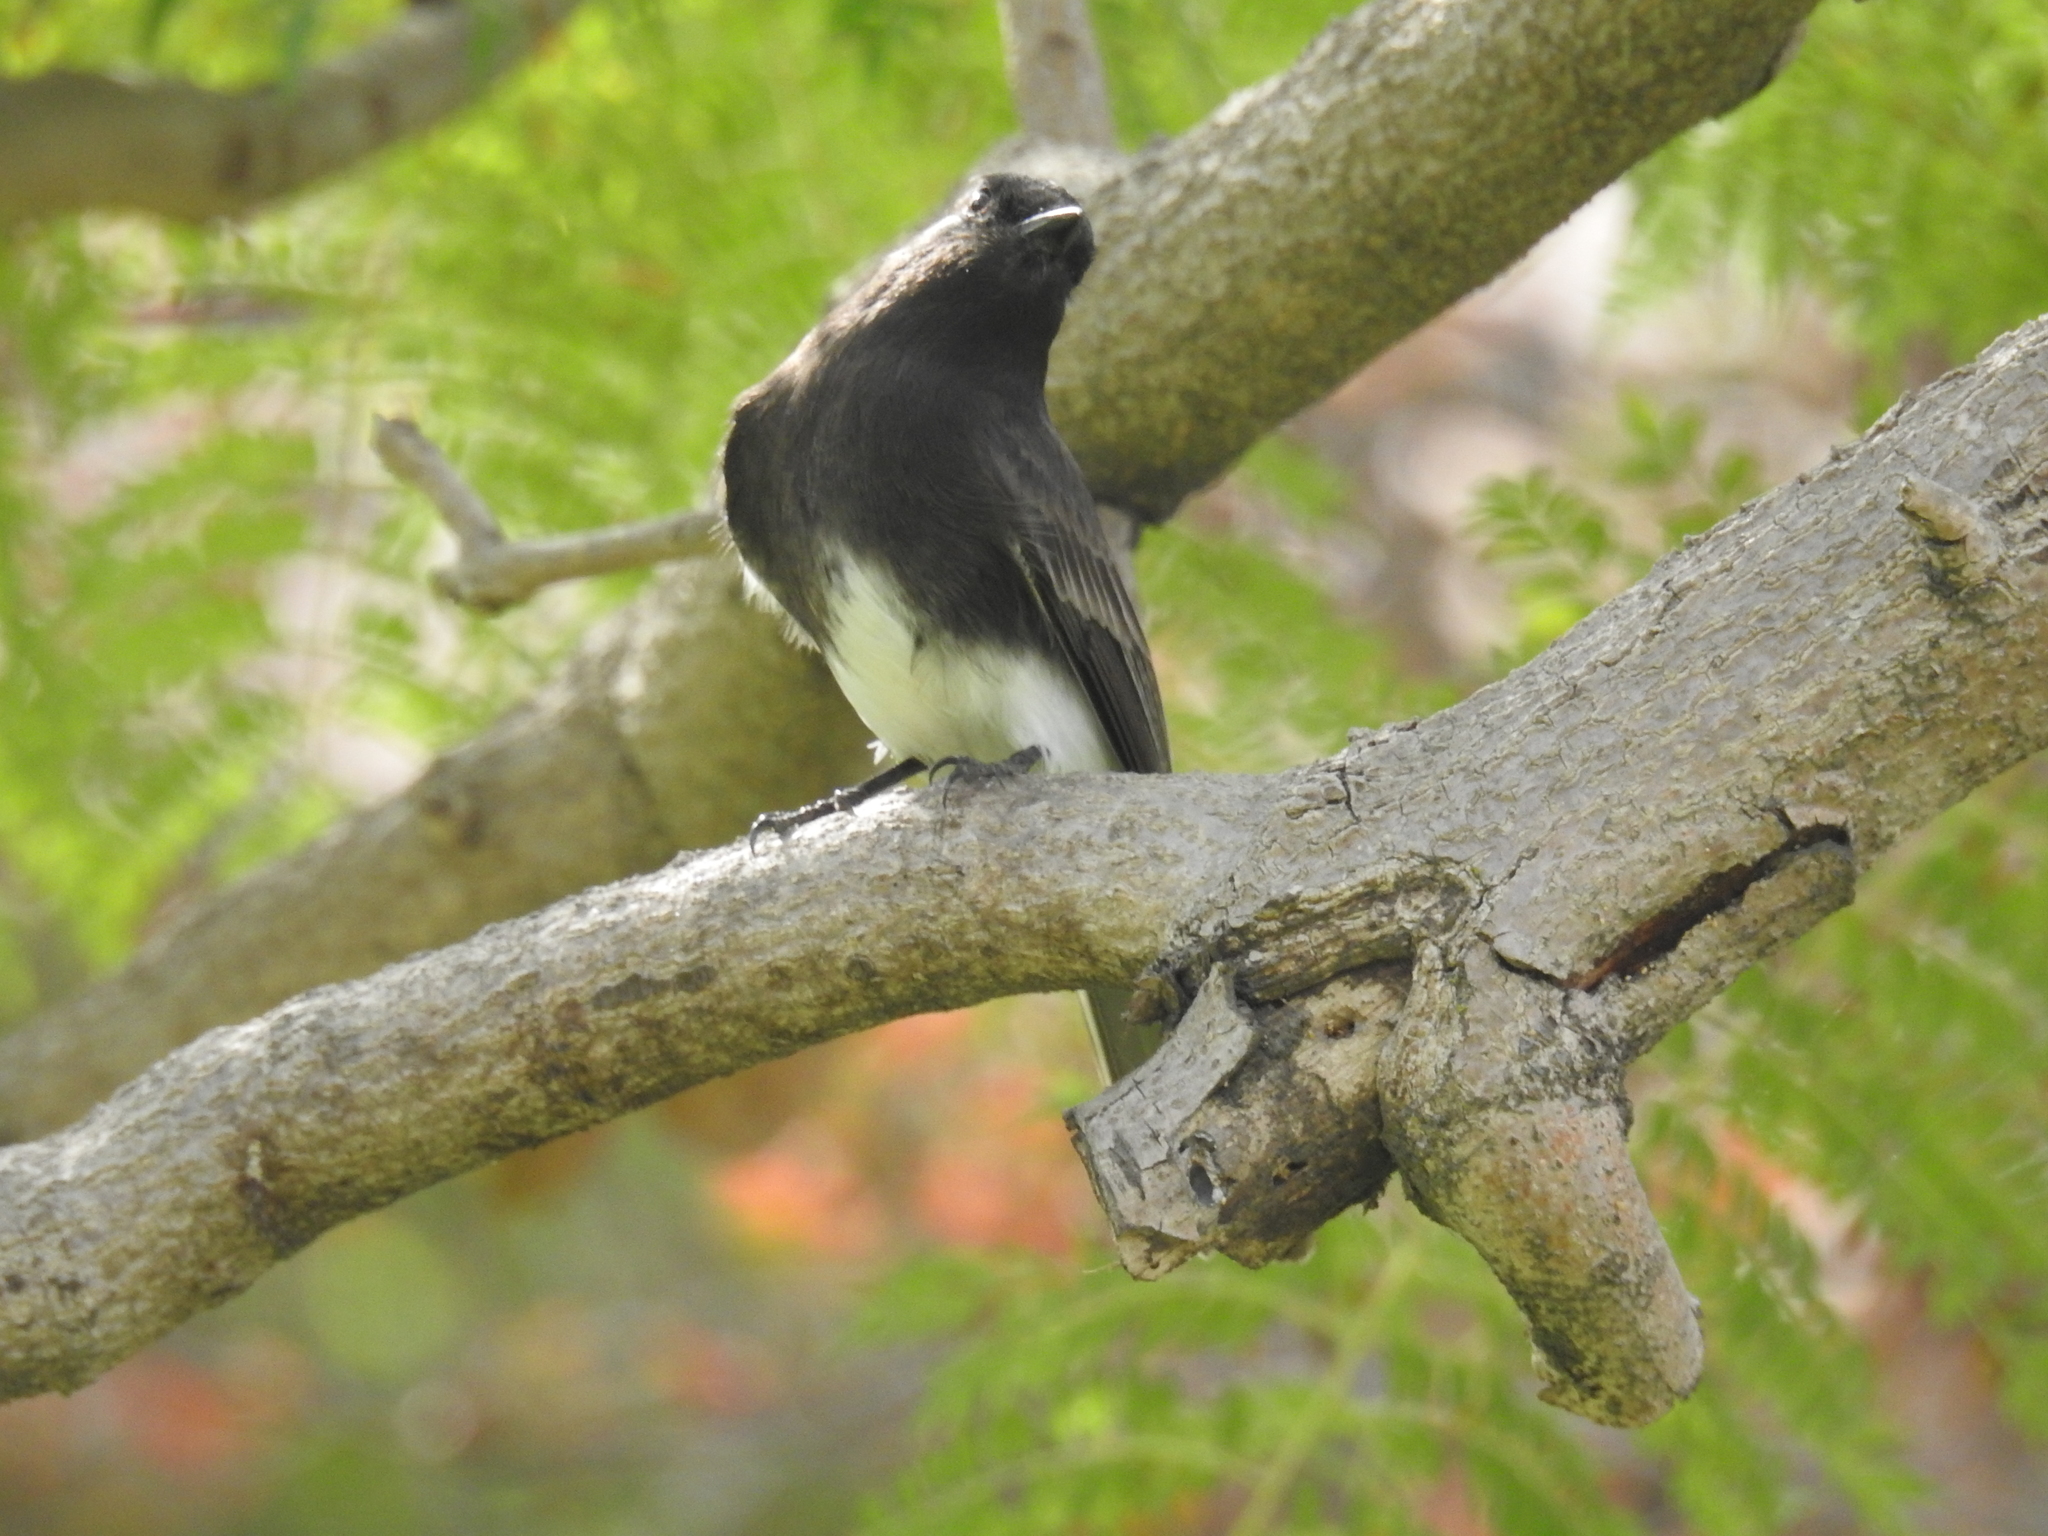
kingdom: Animalia
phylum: Chordata
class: Aves
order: Passeriformes
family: Tyrannidae
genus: Sayornis
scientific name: Sayornis nigricans
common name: Black phoebe
